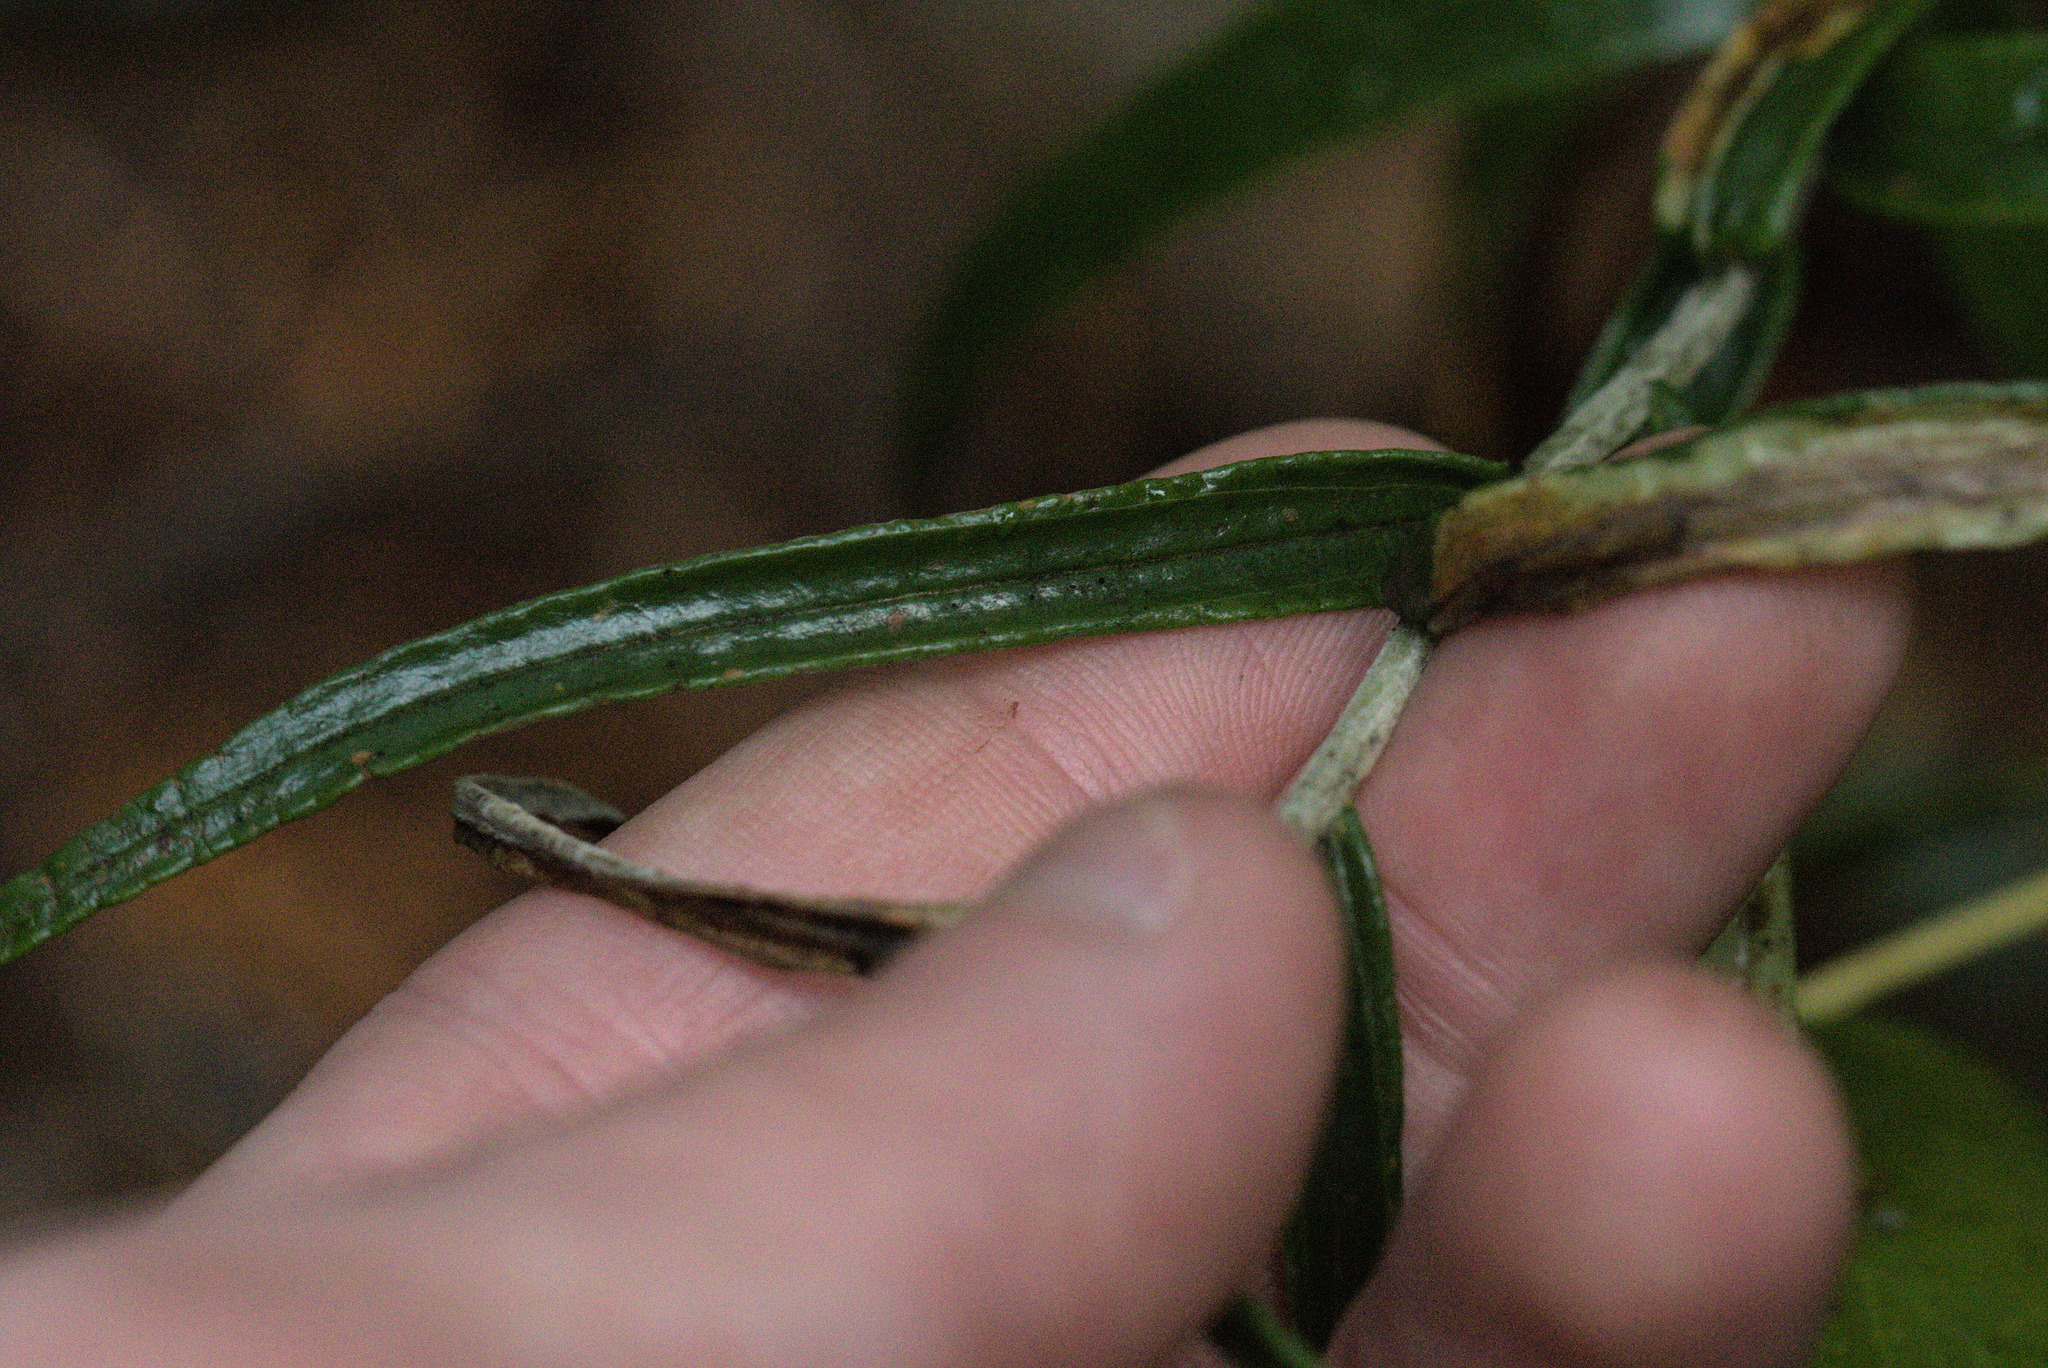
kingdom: Plantae
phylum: Tracheophyta
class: Magnoliopsida
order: Asterales
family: Asteraceae
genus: Anaphalis
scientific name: Anaphalis margaritacea
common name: Pearly everlasting
